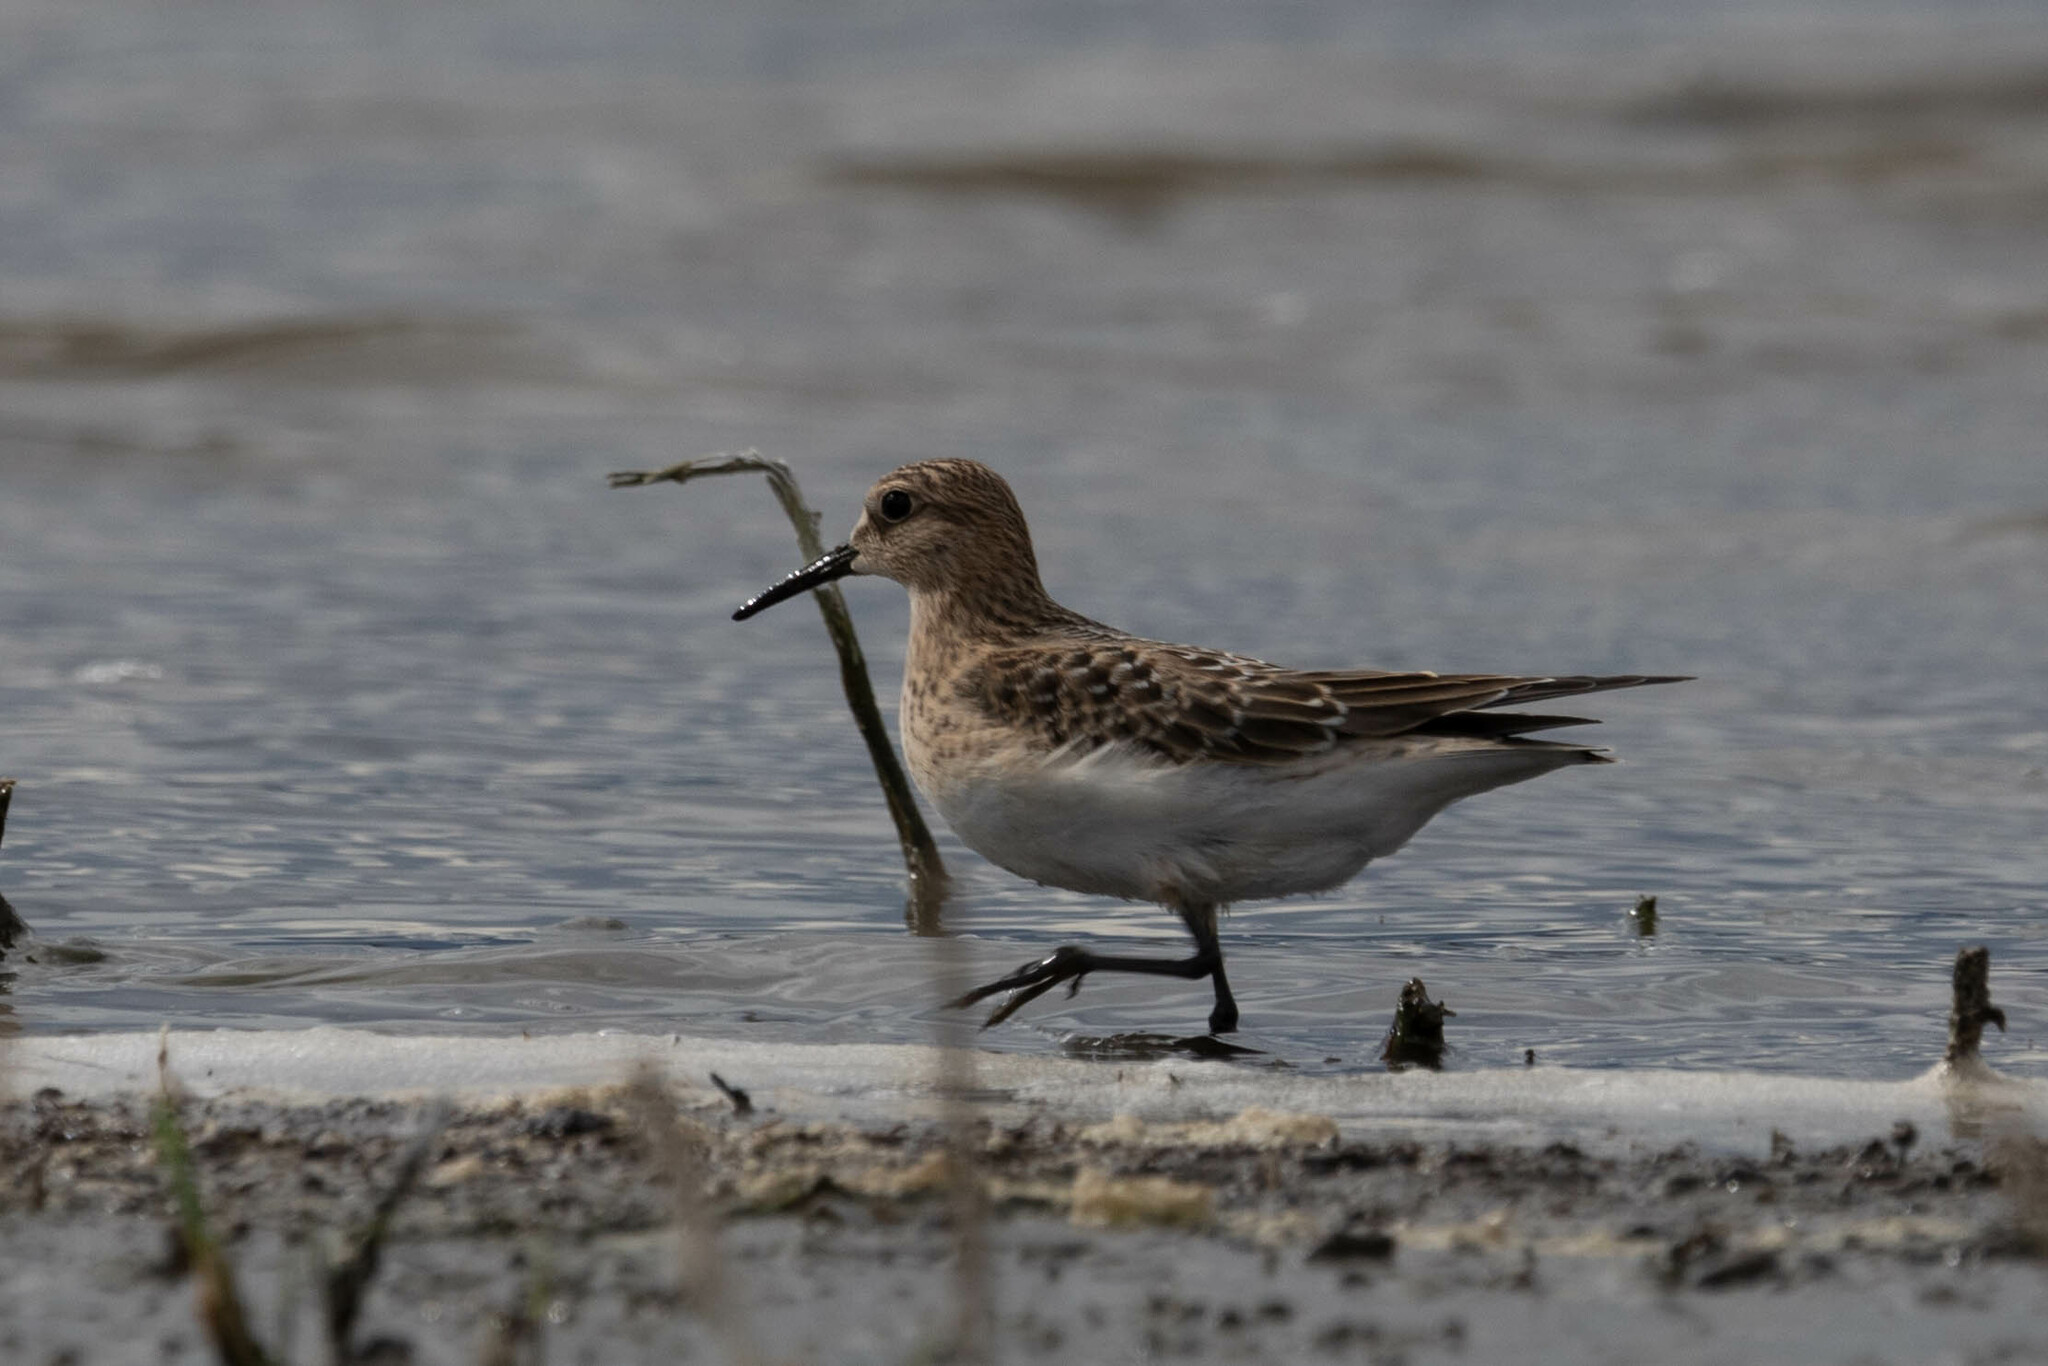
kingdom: Animalia
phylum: Chordata
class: Aves
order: Charadriiformes
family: Scolopacidae
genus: Calidris
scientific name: Calidris bairdii
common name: Baird's sandpiper
